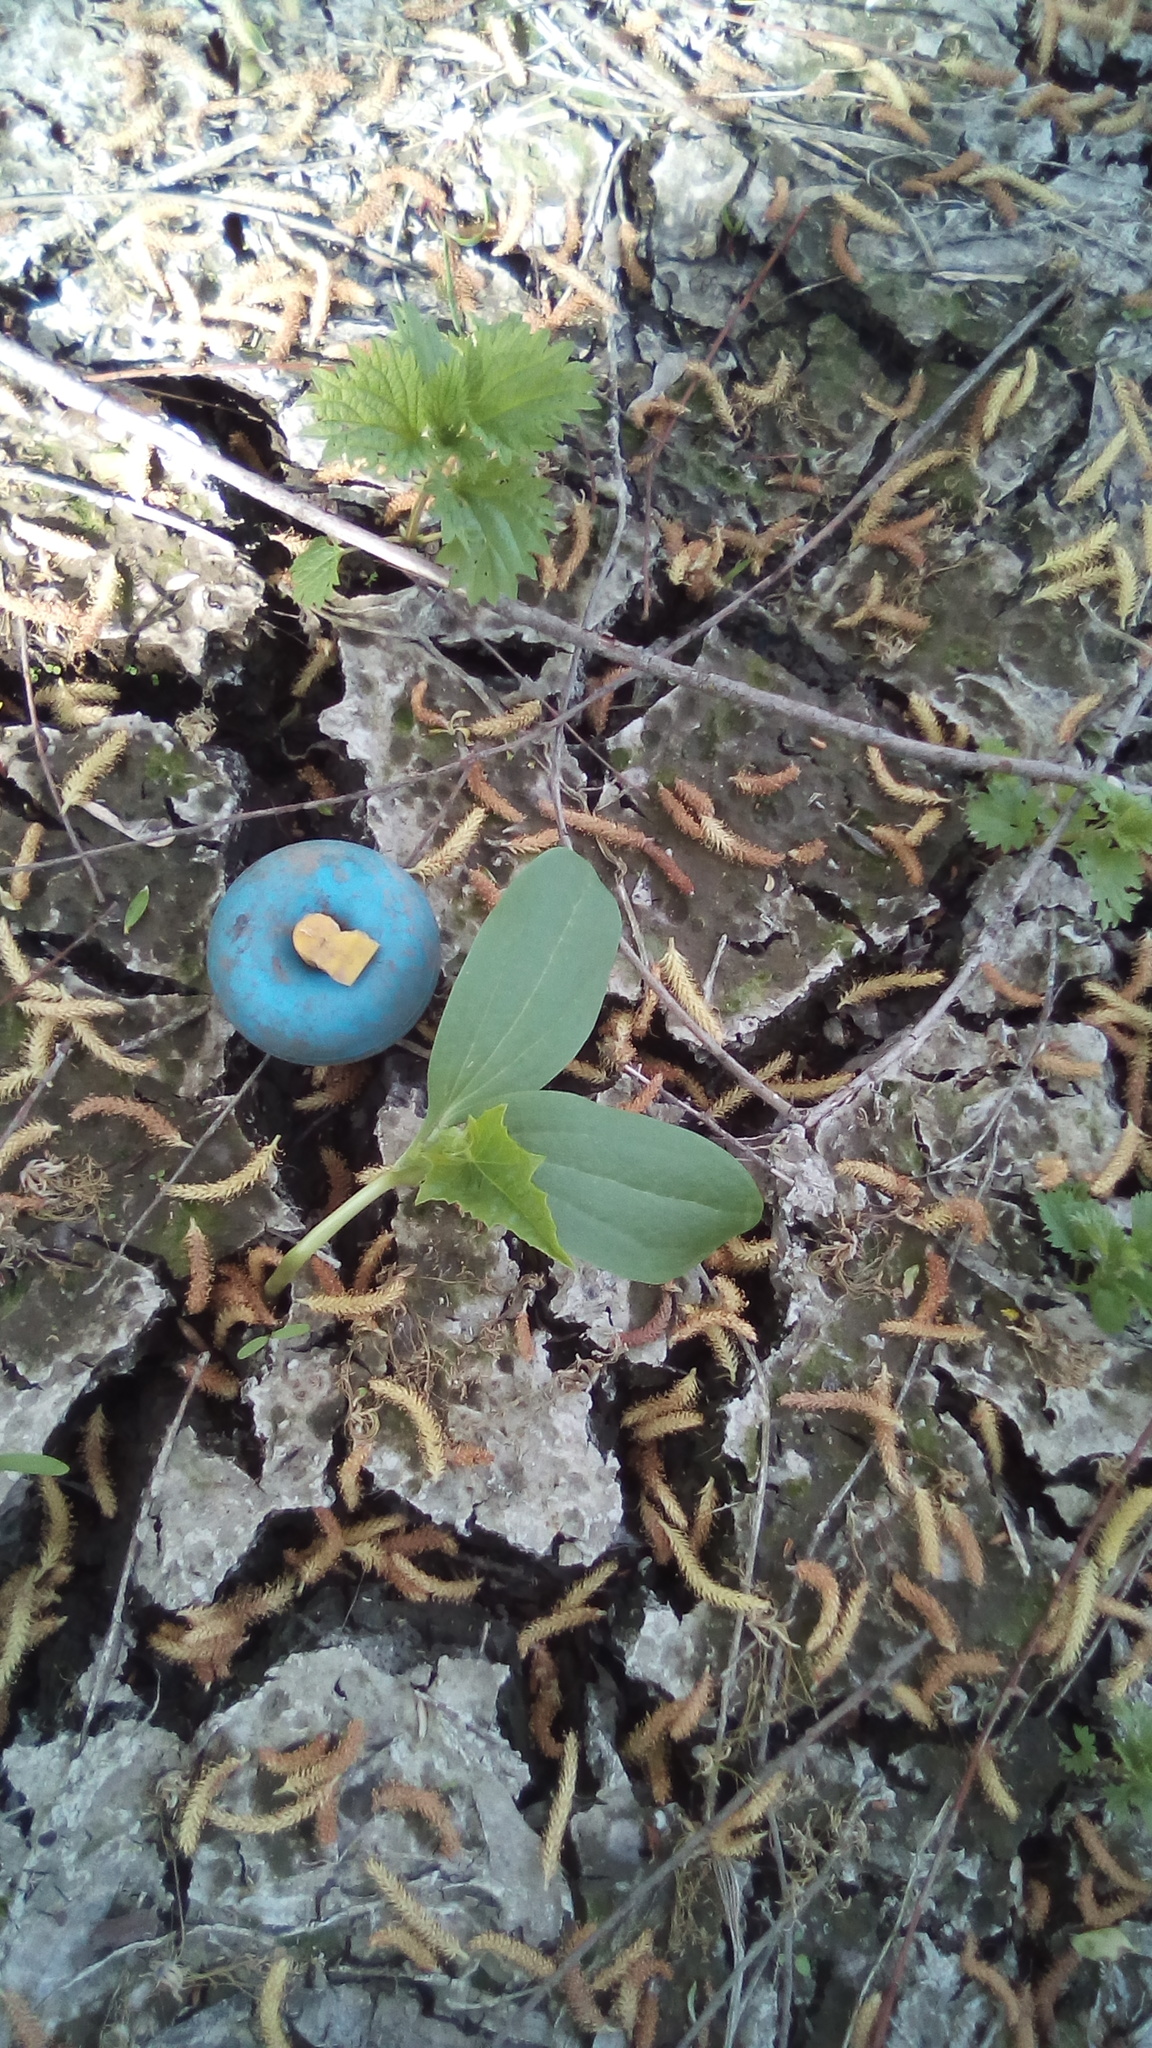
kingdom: Plantae
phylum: Tracheophyta
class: Magnoliopsida
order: Cucurbitales
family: Cucurbitaceae
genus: Echinocystis
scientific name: Echinocystis lobata
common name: Wild cucumber
